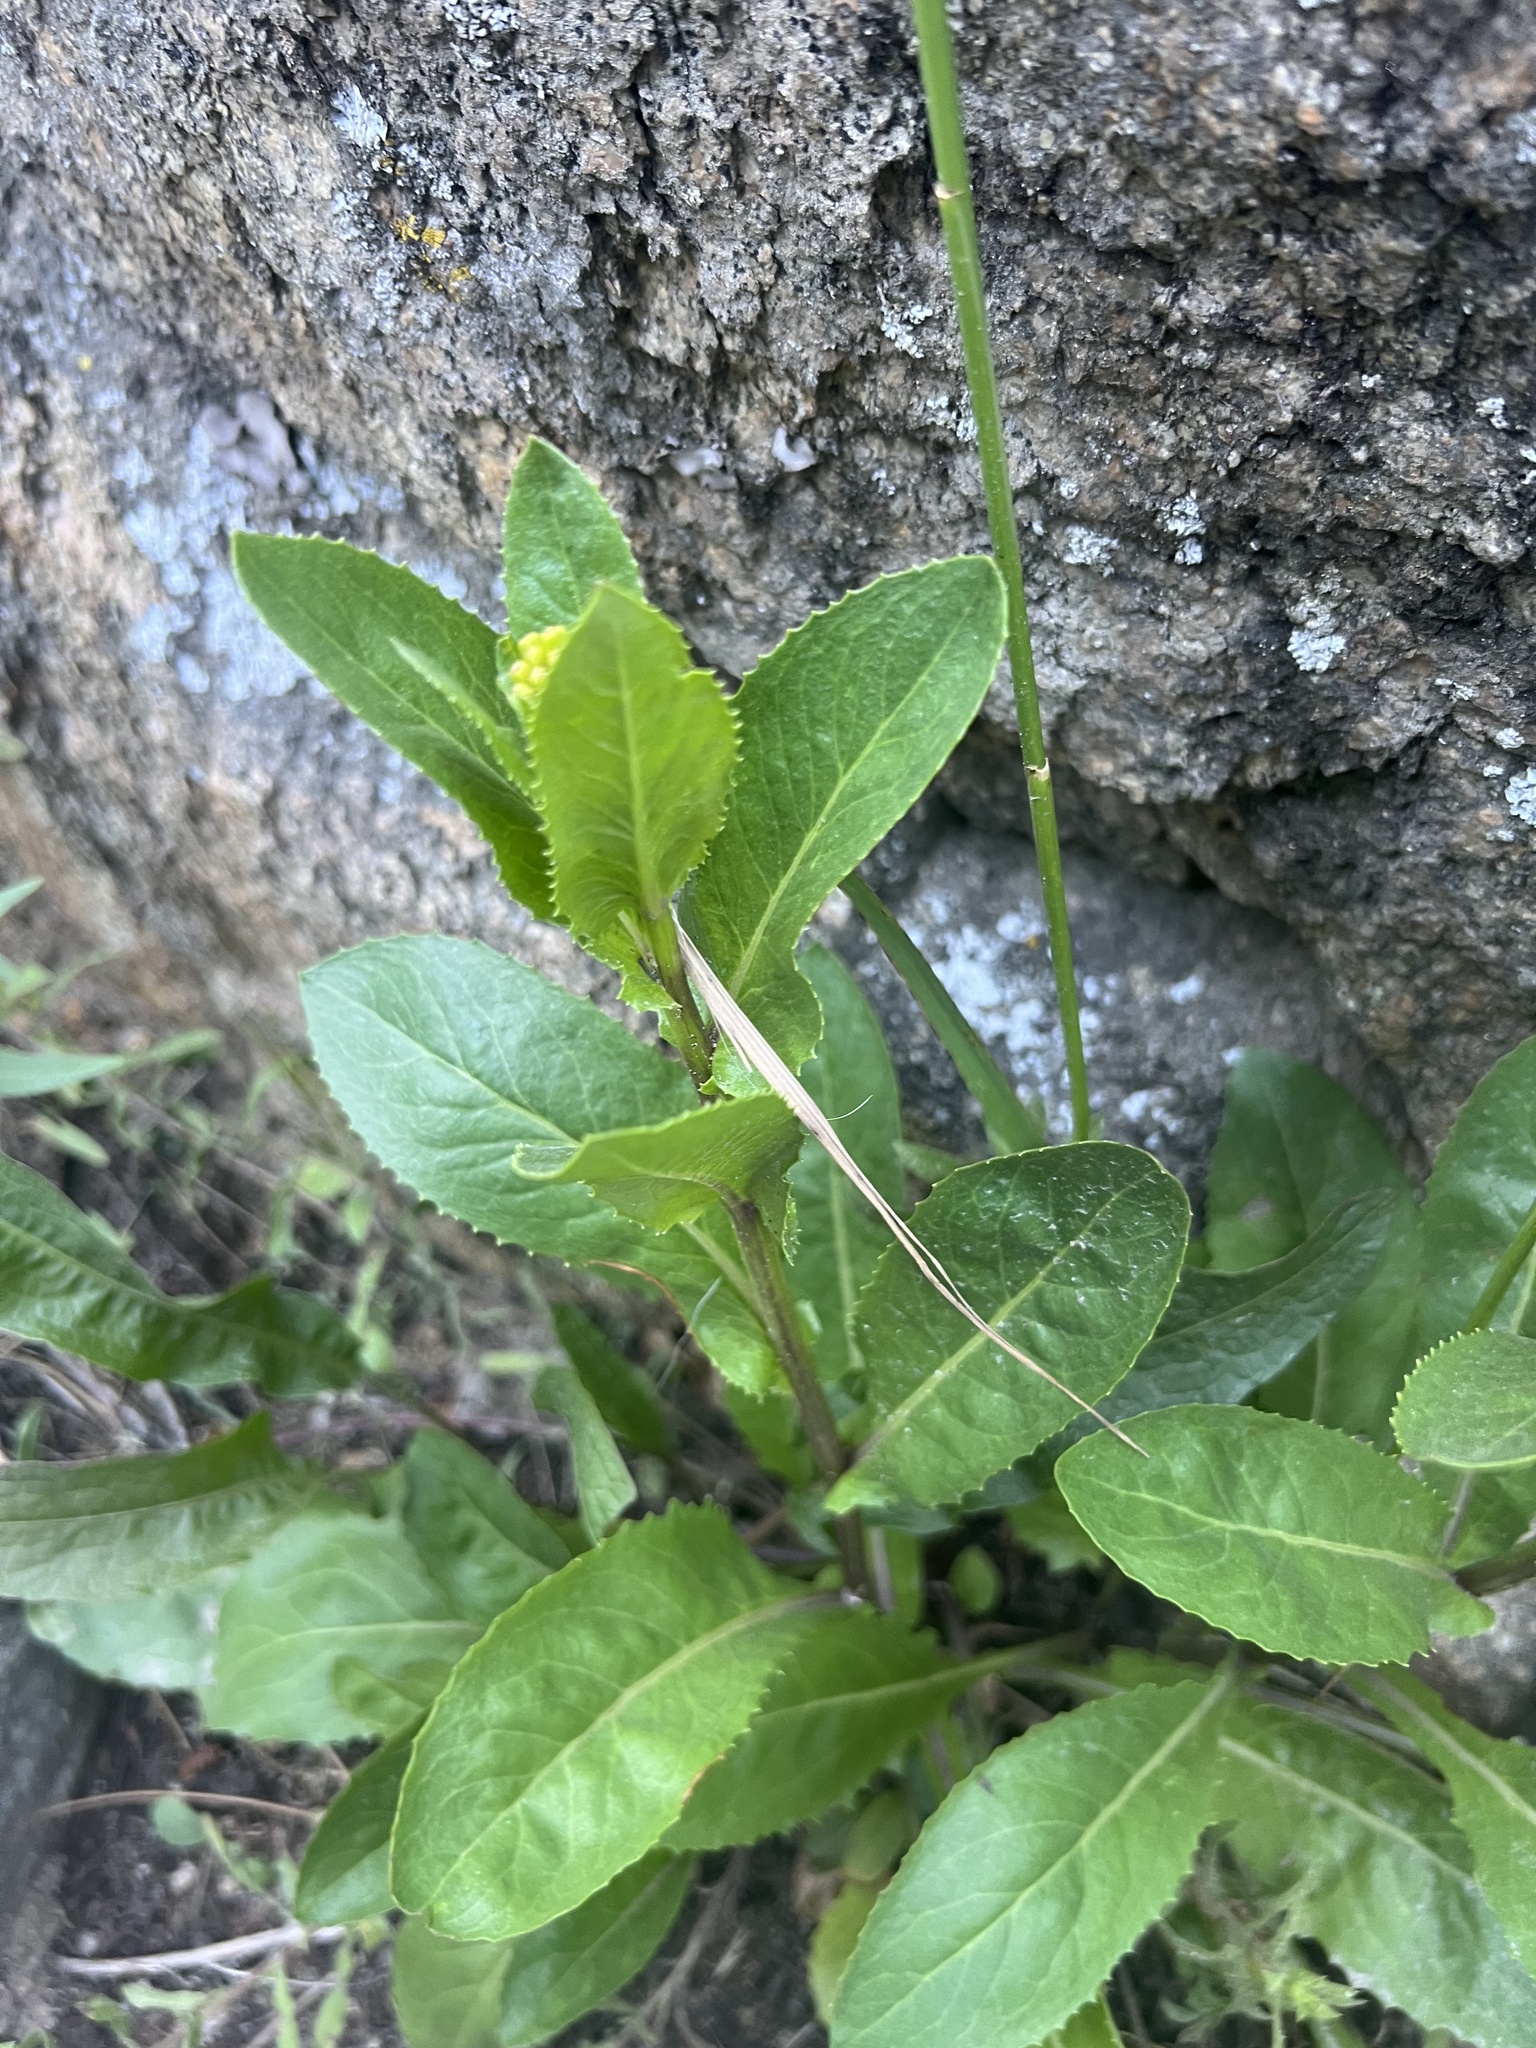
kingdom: Plantae
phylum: Tracheophyta
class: Magnoliopsida
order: Asterales
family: Asteraceae
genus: Senecio
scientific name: Senecio rapifolius
